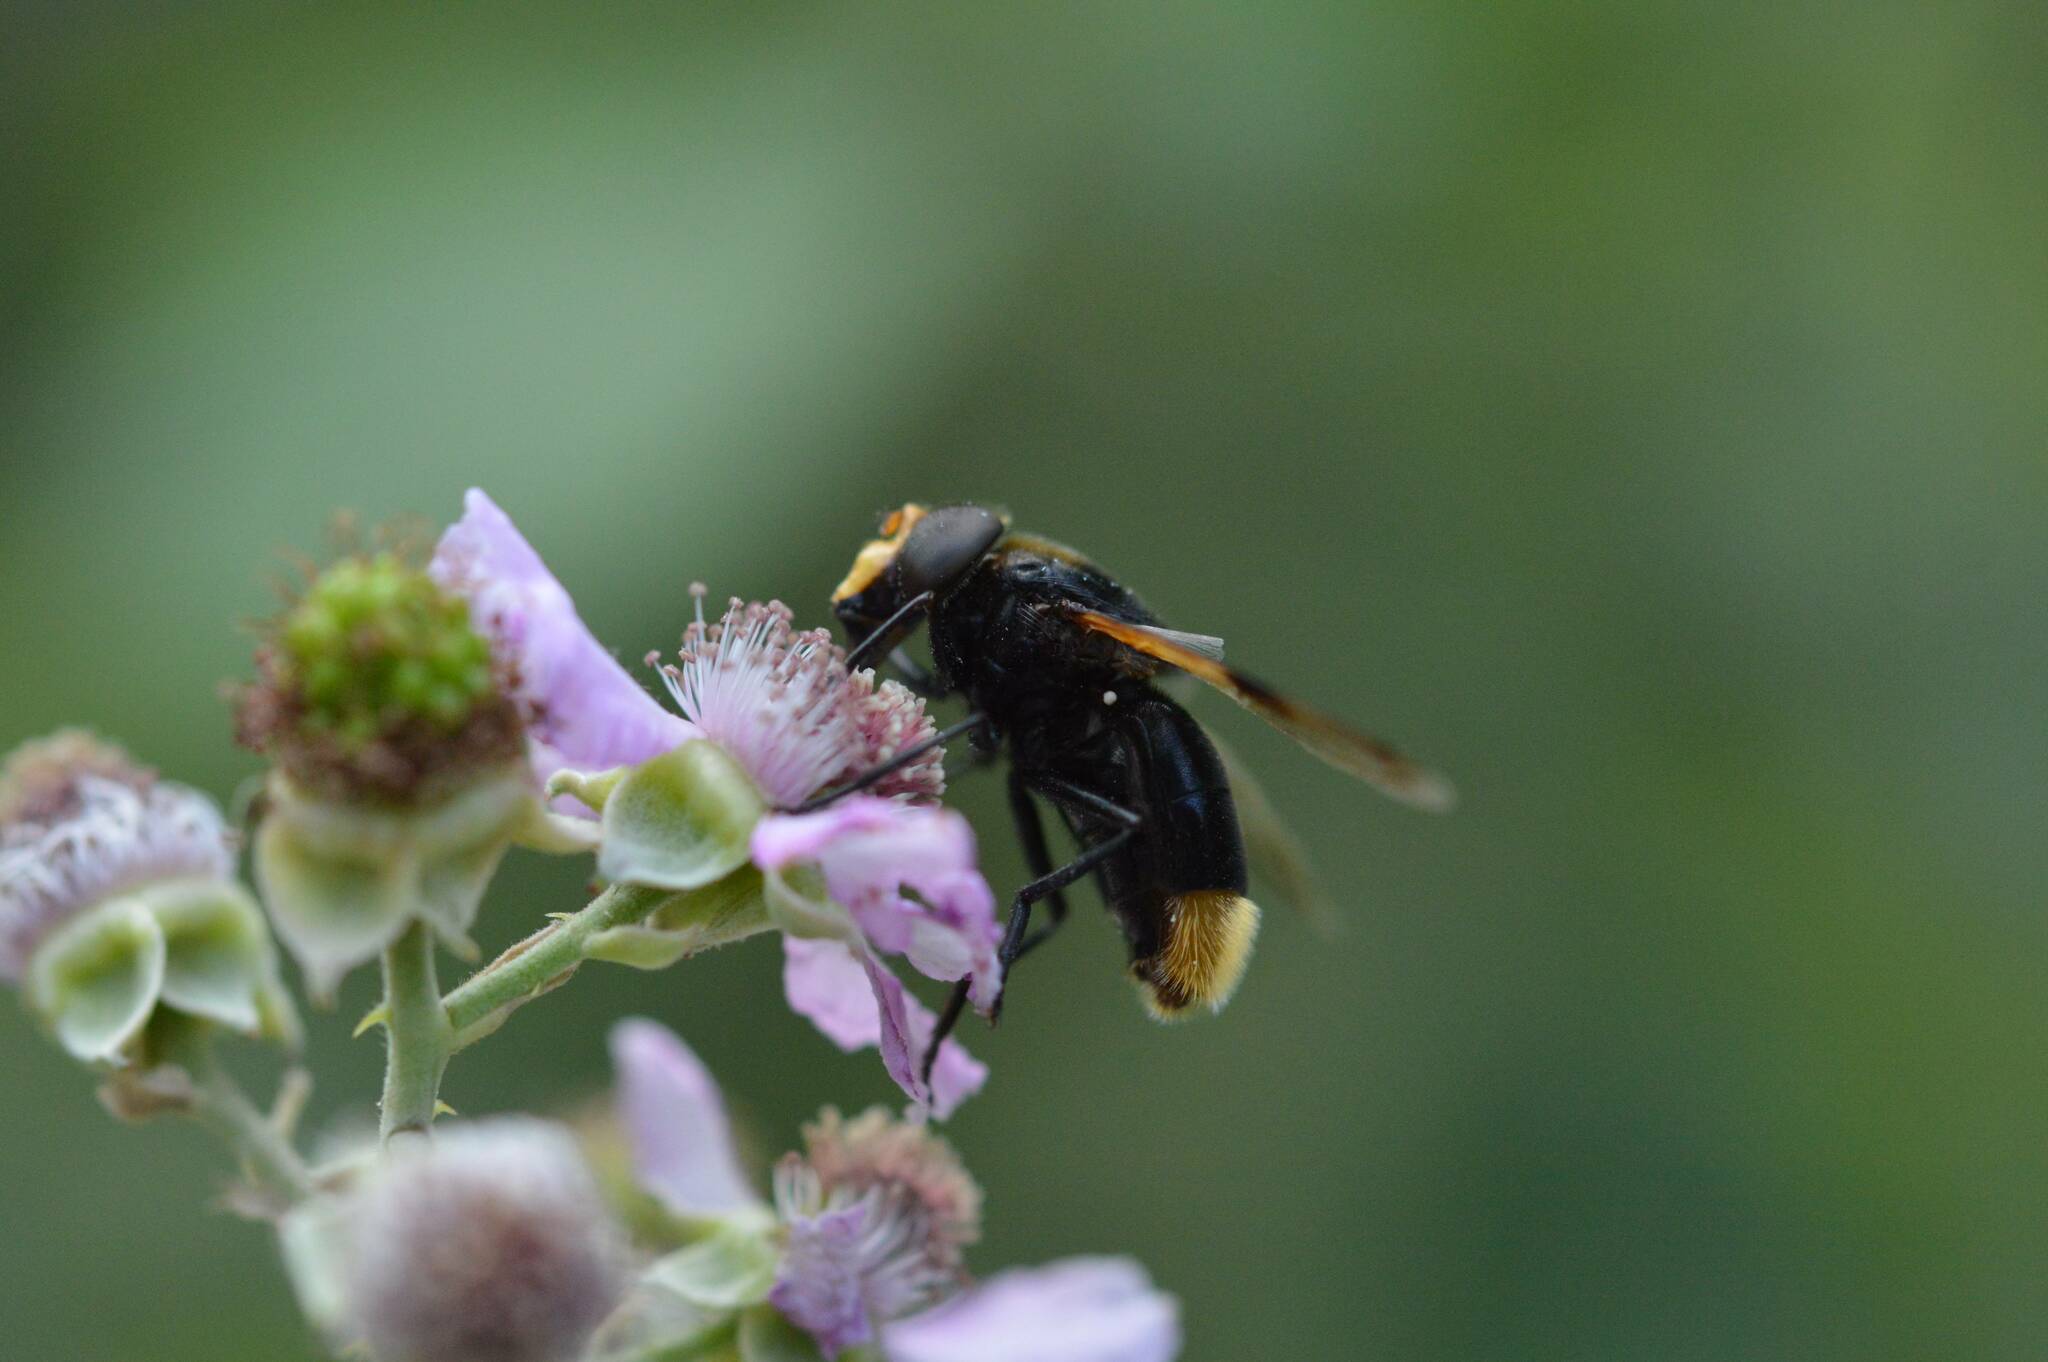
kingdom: Animalia
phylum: Arthropoda
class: Insecta
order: Diptera
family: Syrphidae
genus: Volucella
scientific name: Volucella liquida
